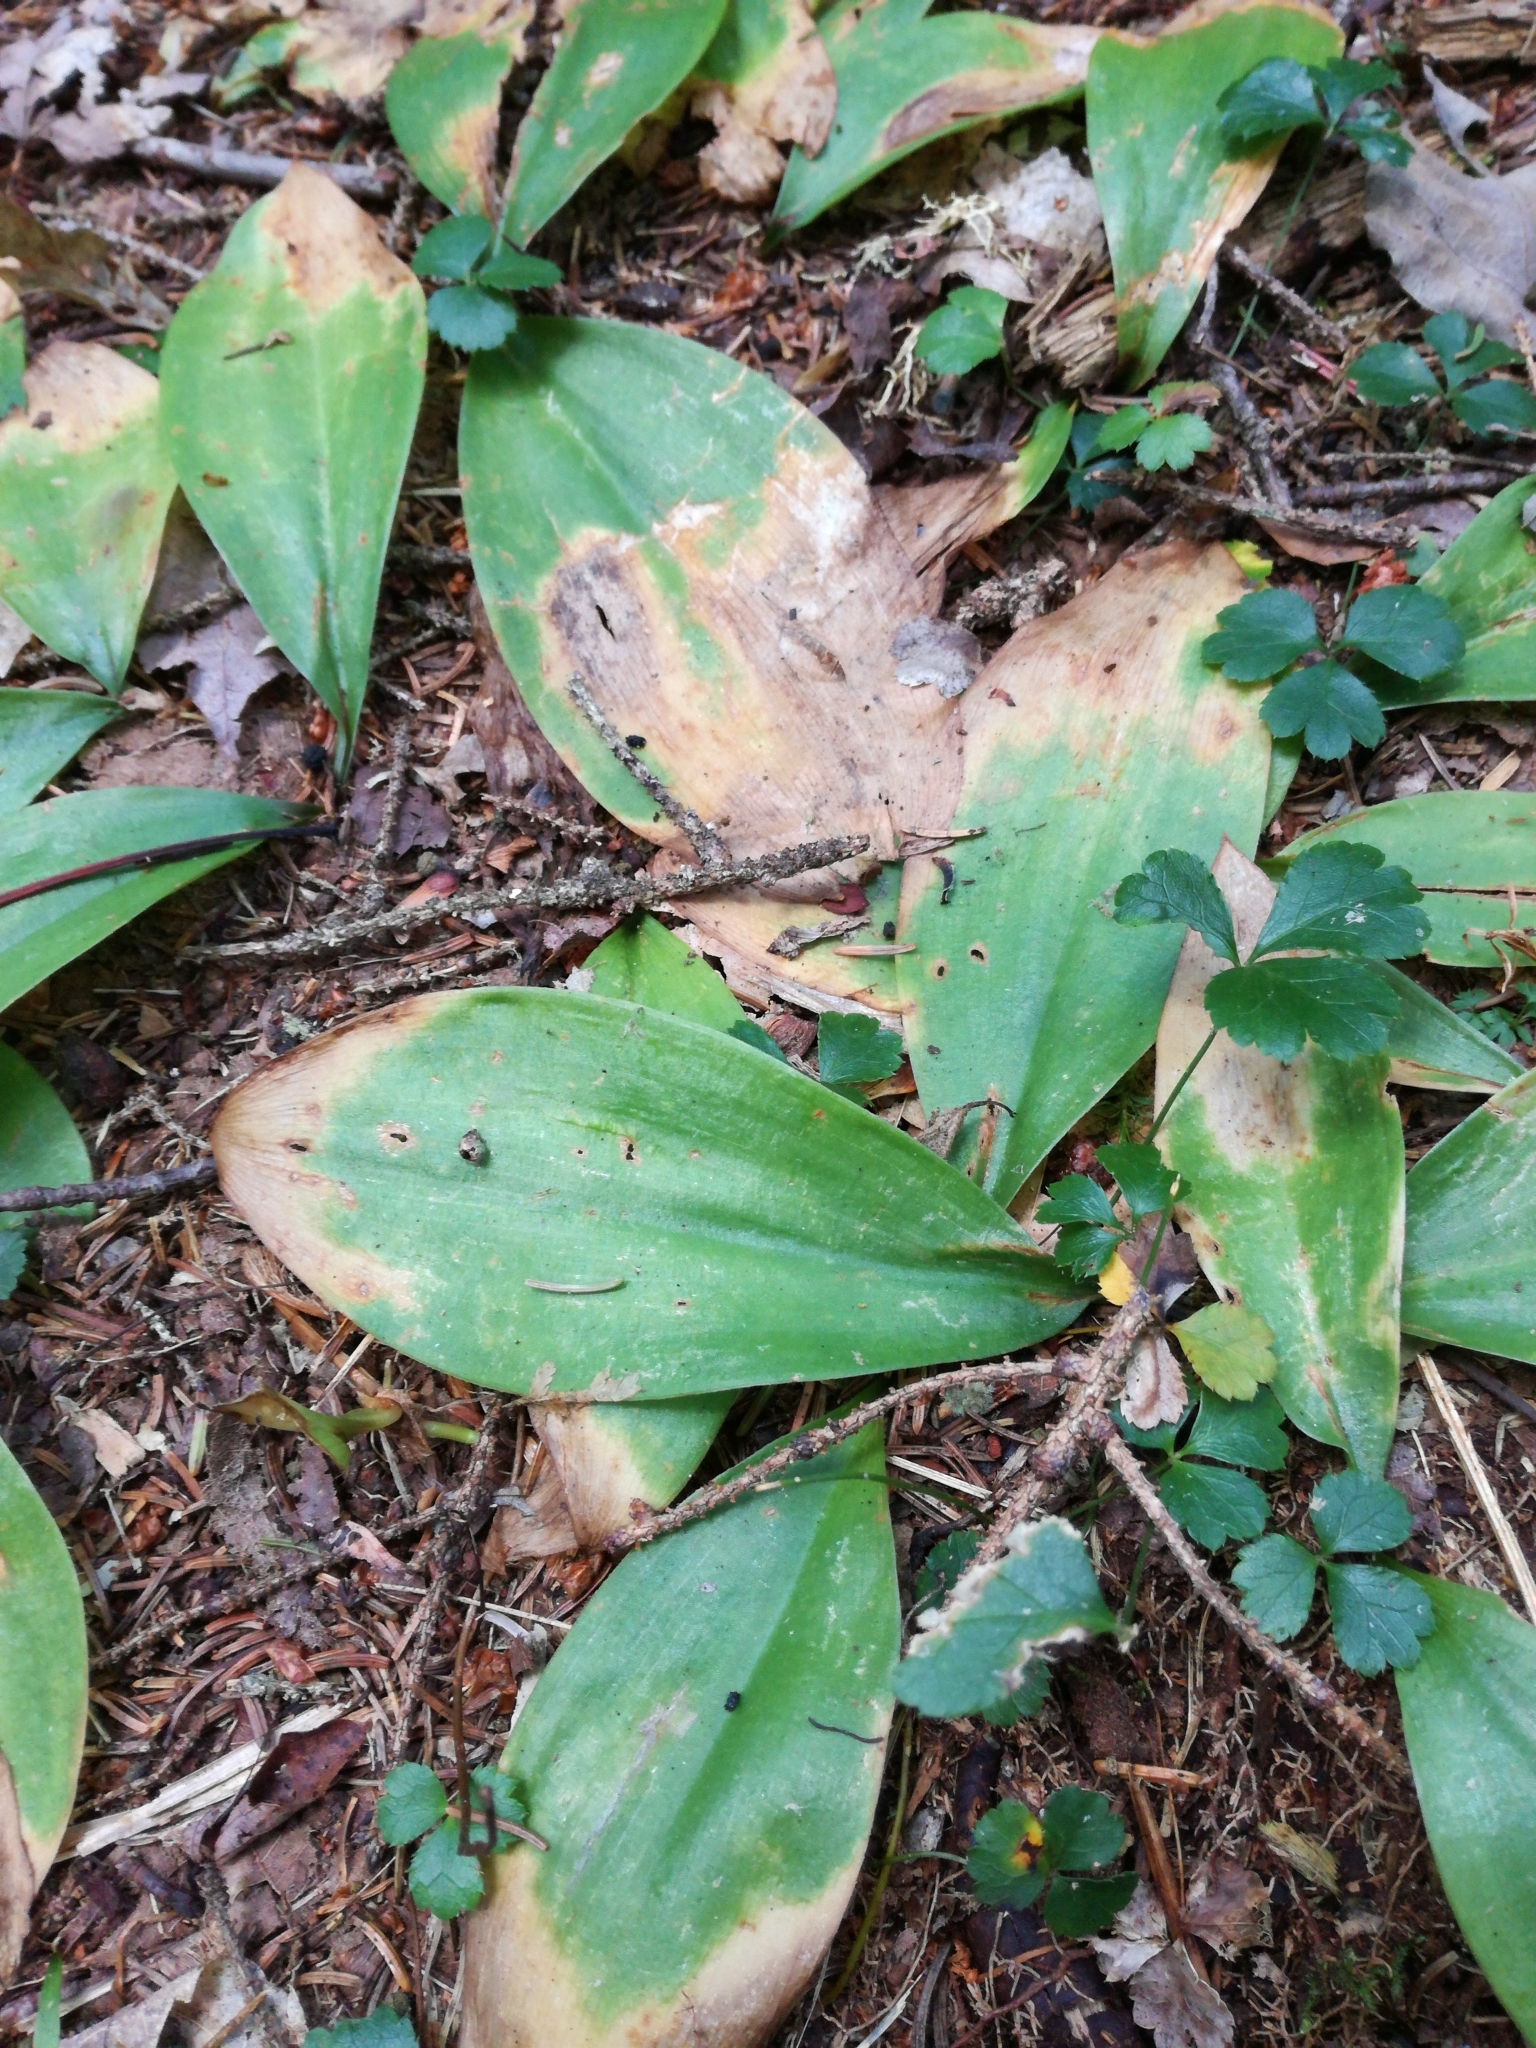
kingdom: Plantae
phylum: Tracheophyta
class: Liliopsida
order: Liliales
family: Liliaceae
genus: Clintonia
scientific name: Clintonia borealis
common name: Yellow clintonia
